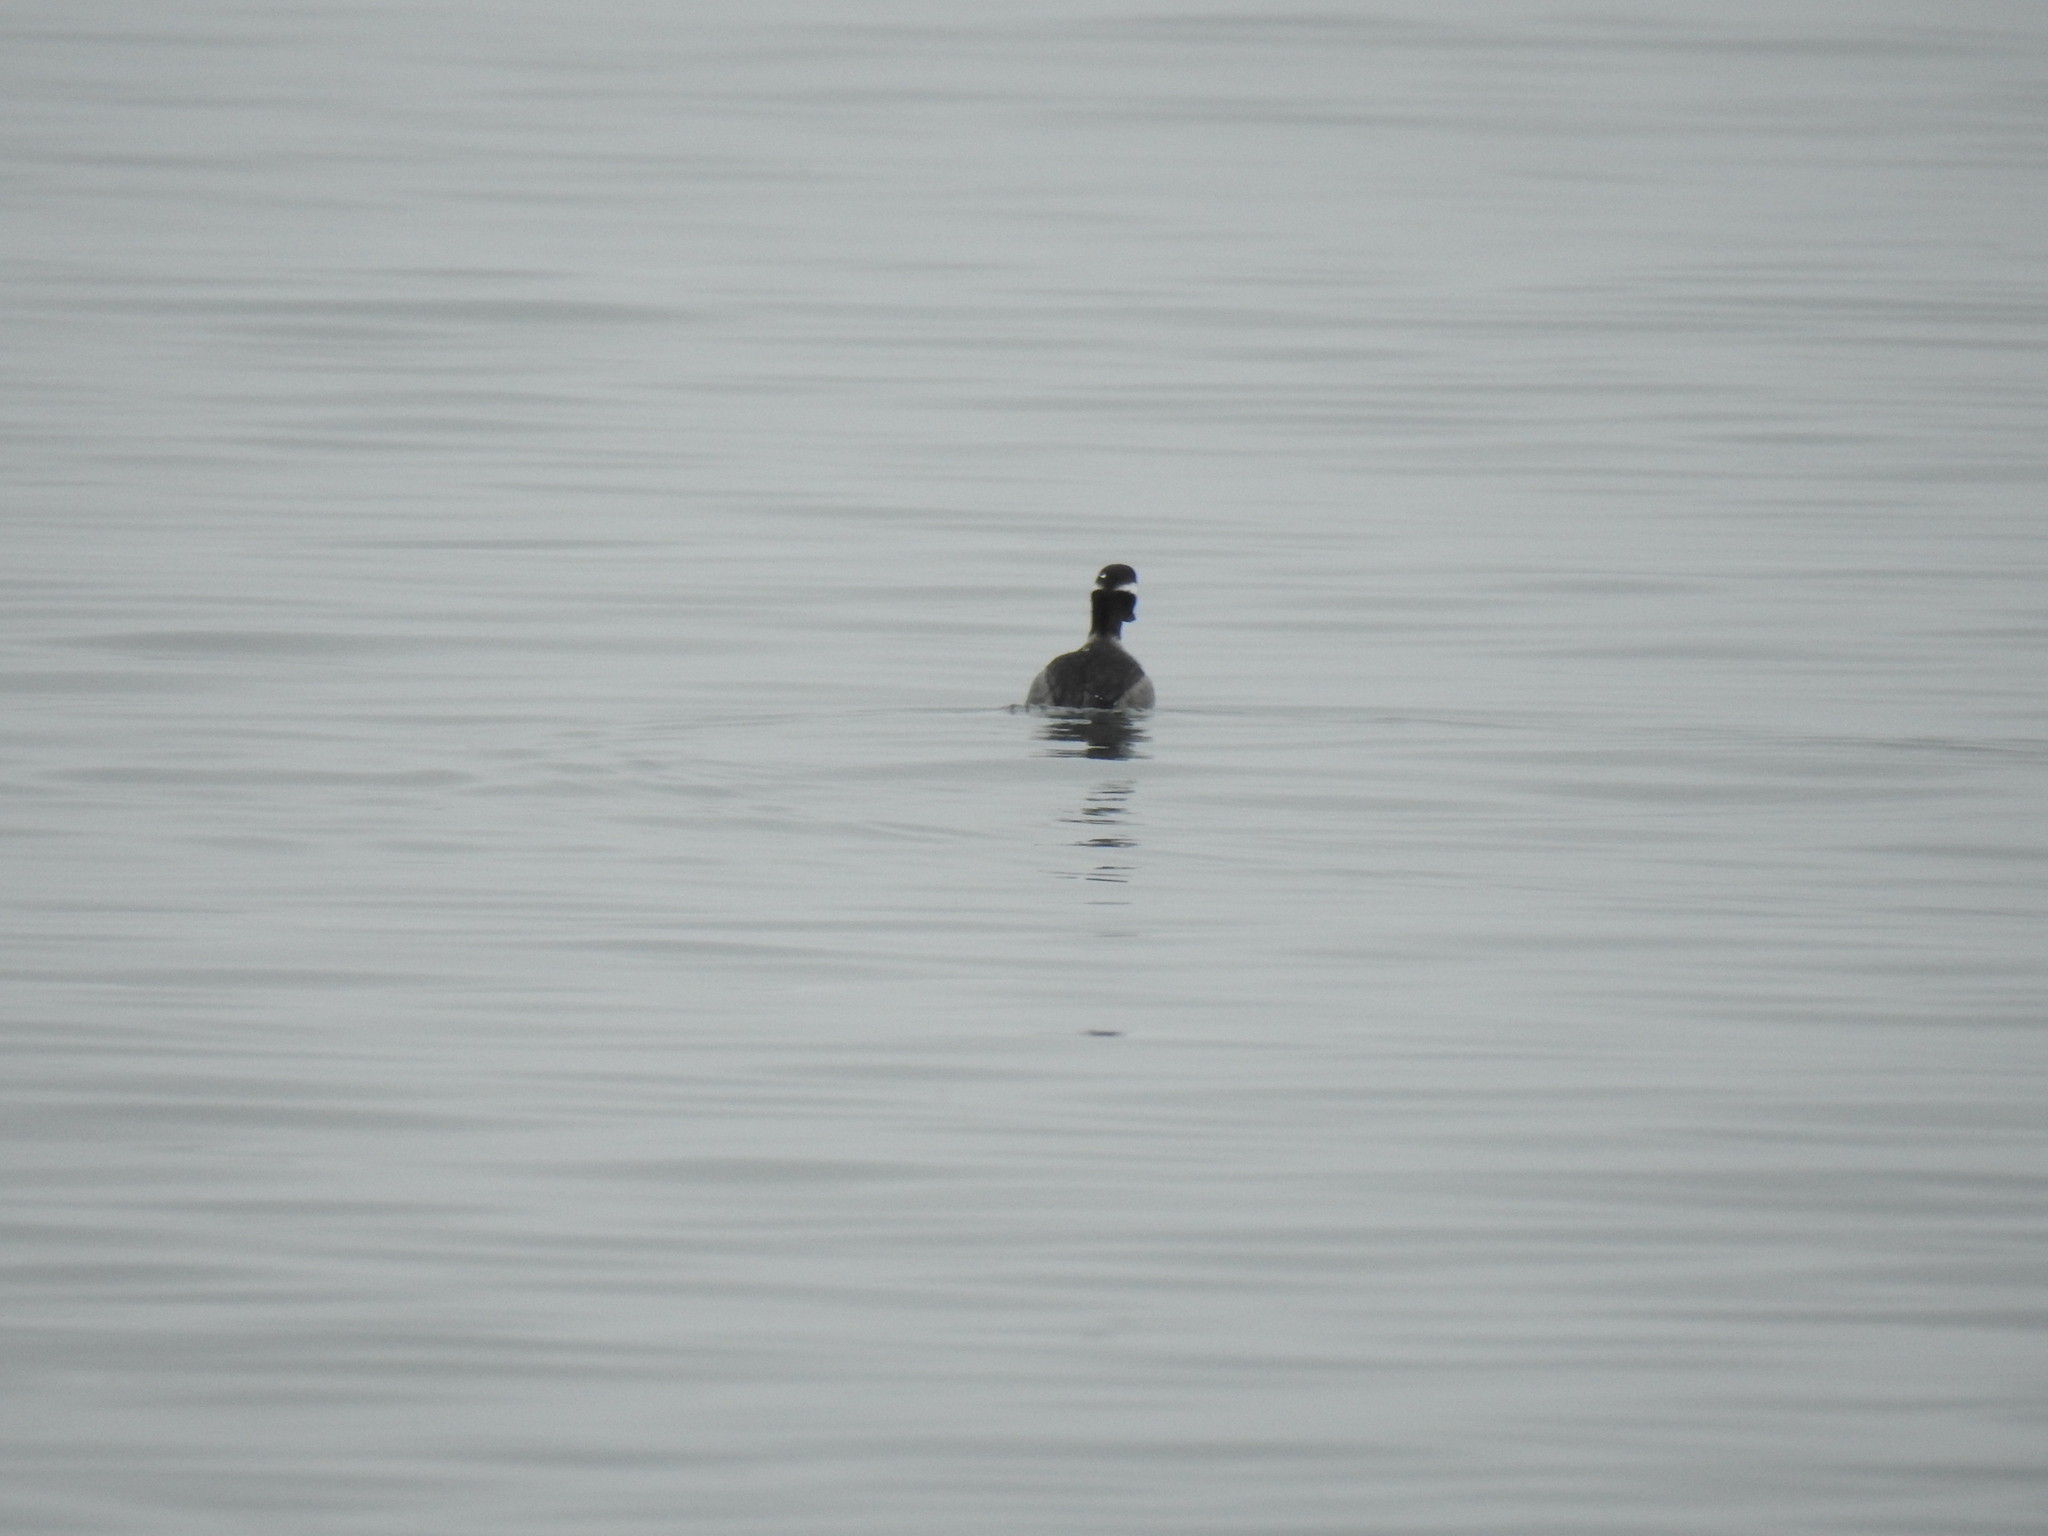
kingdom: Animalia
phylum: Chordata
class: Aves
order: Anseriformes
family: Anatidae
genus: Bucephala
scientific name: Bucephala albeola
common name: Bufflehead
